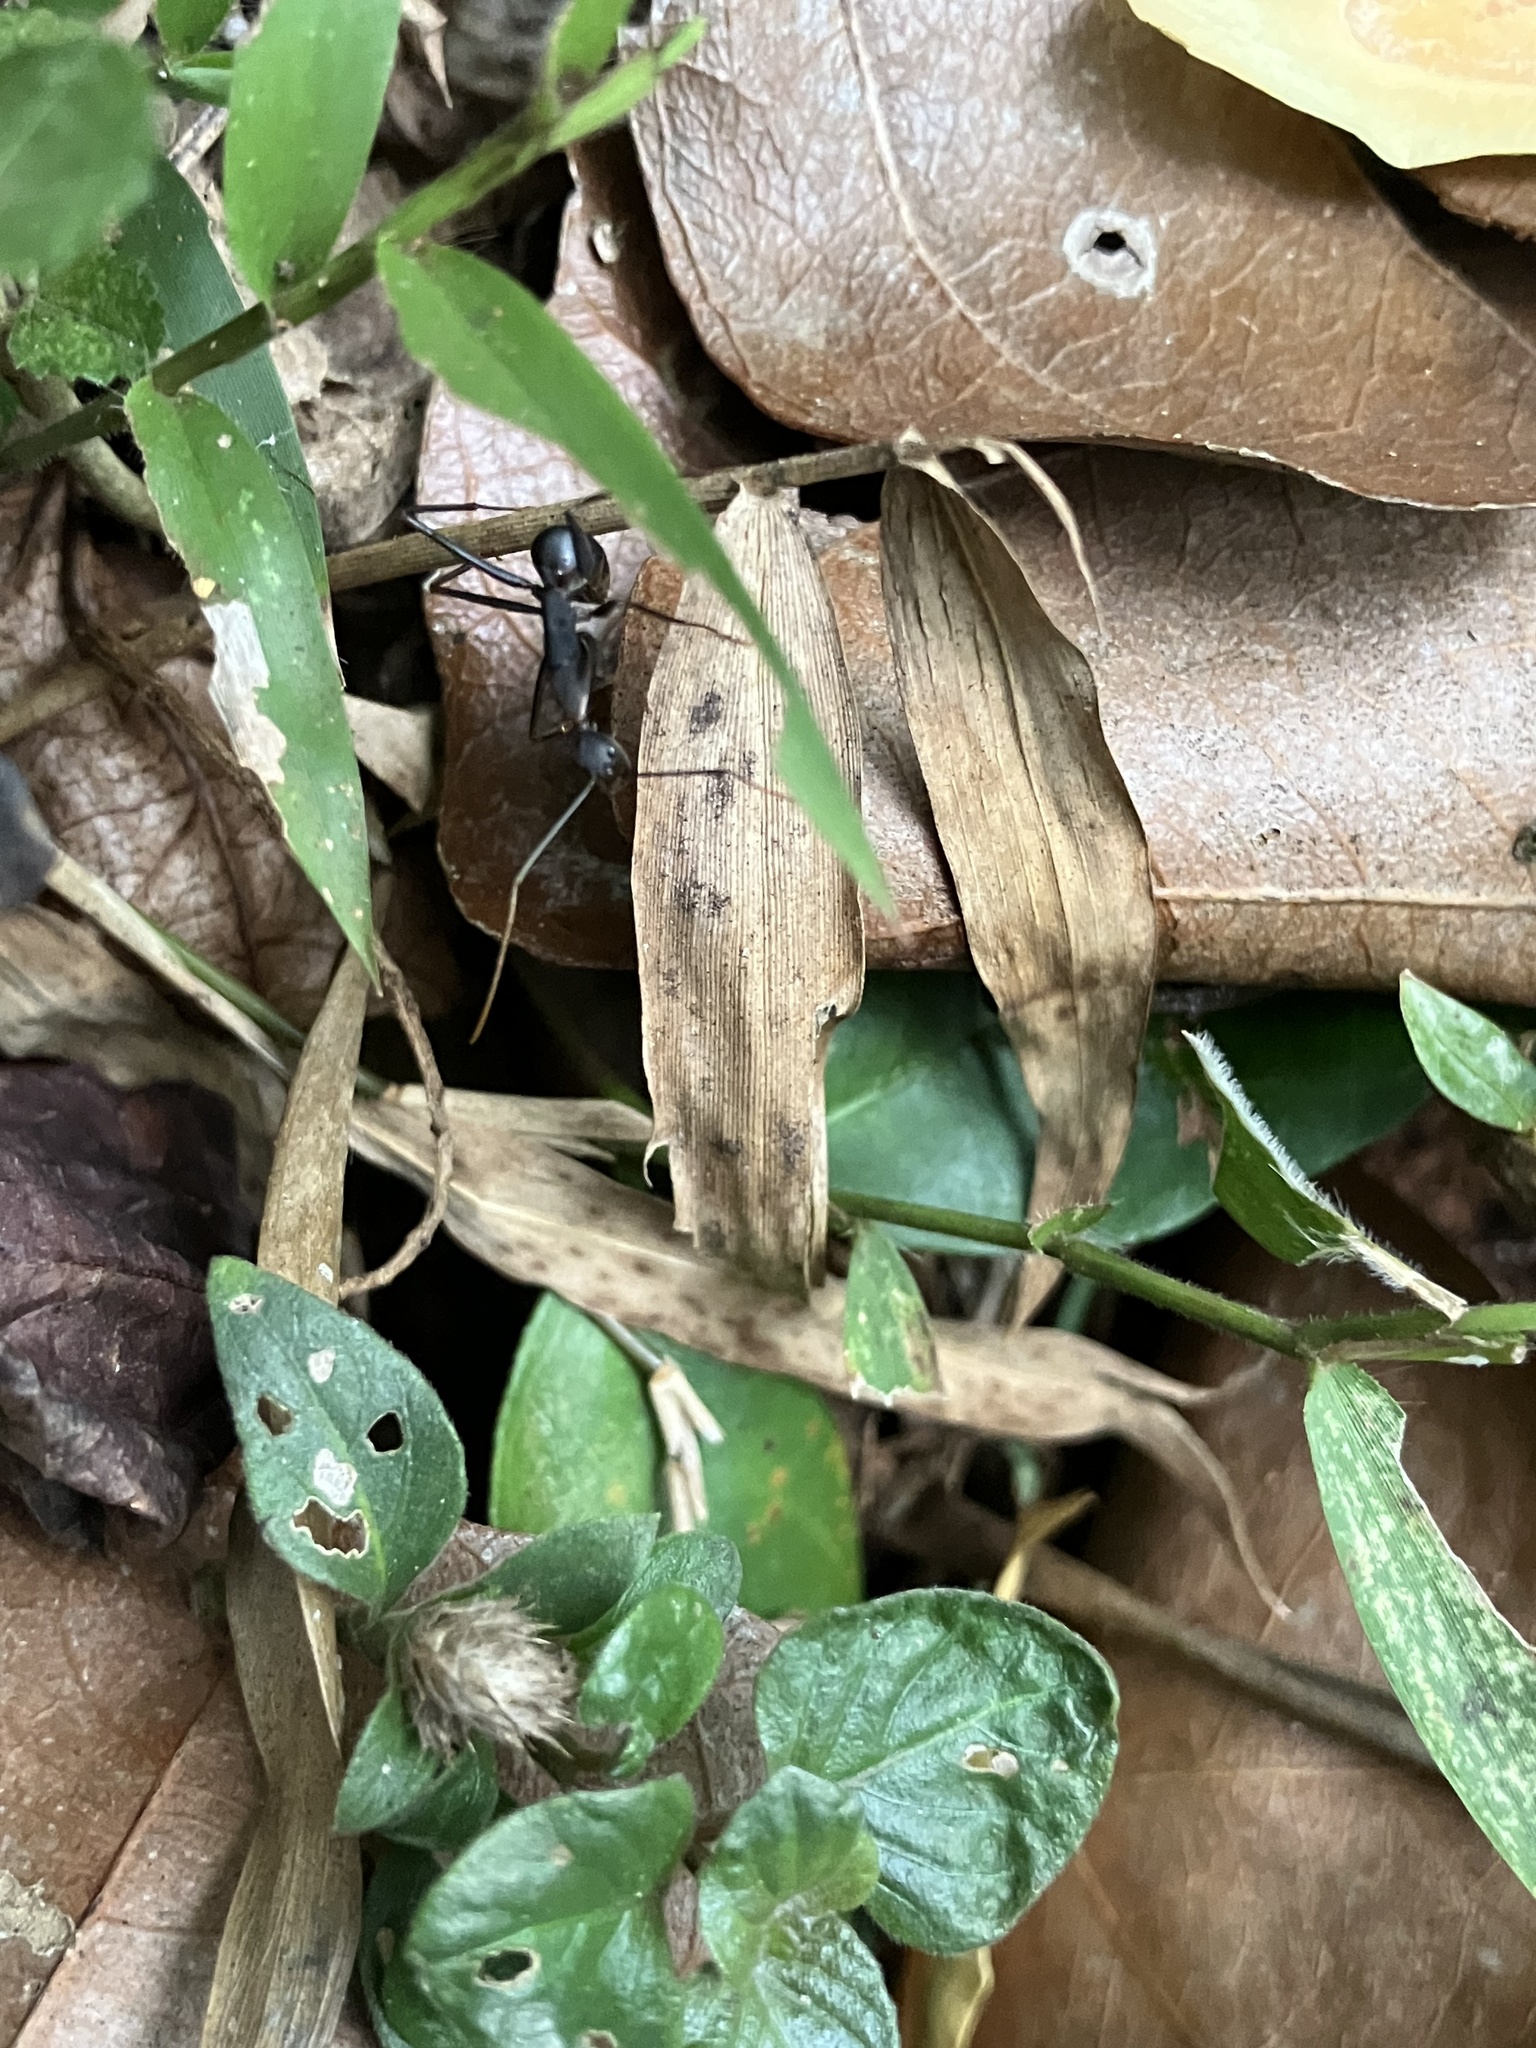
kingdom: Animalia
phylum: Arthropoda
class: Insecta
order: Hymenoptera
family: Formicidae
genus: Camponotus
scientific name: Camponotus angusticollis
